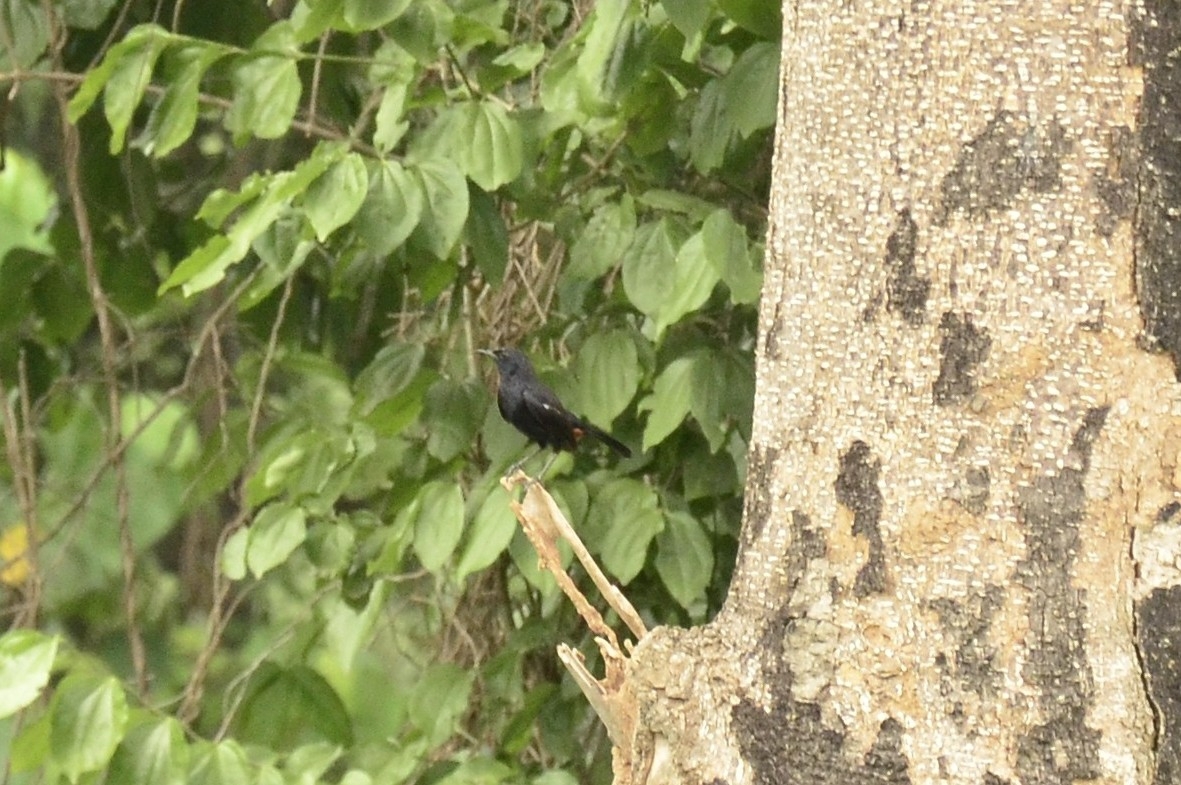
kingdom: Animalia
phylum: Chordata
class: Aves
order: Passeriformes
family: Muscicapidae
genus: Saxicoloides
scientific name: Saxicoloides fulicatus
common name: Indian robin
